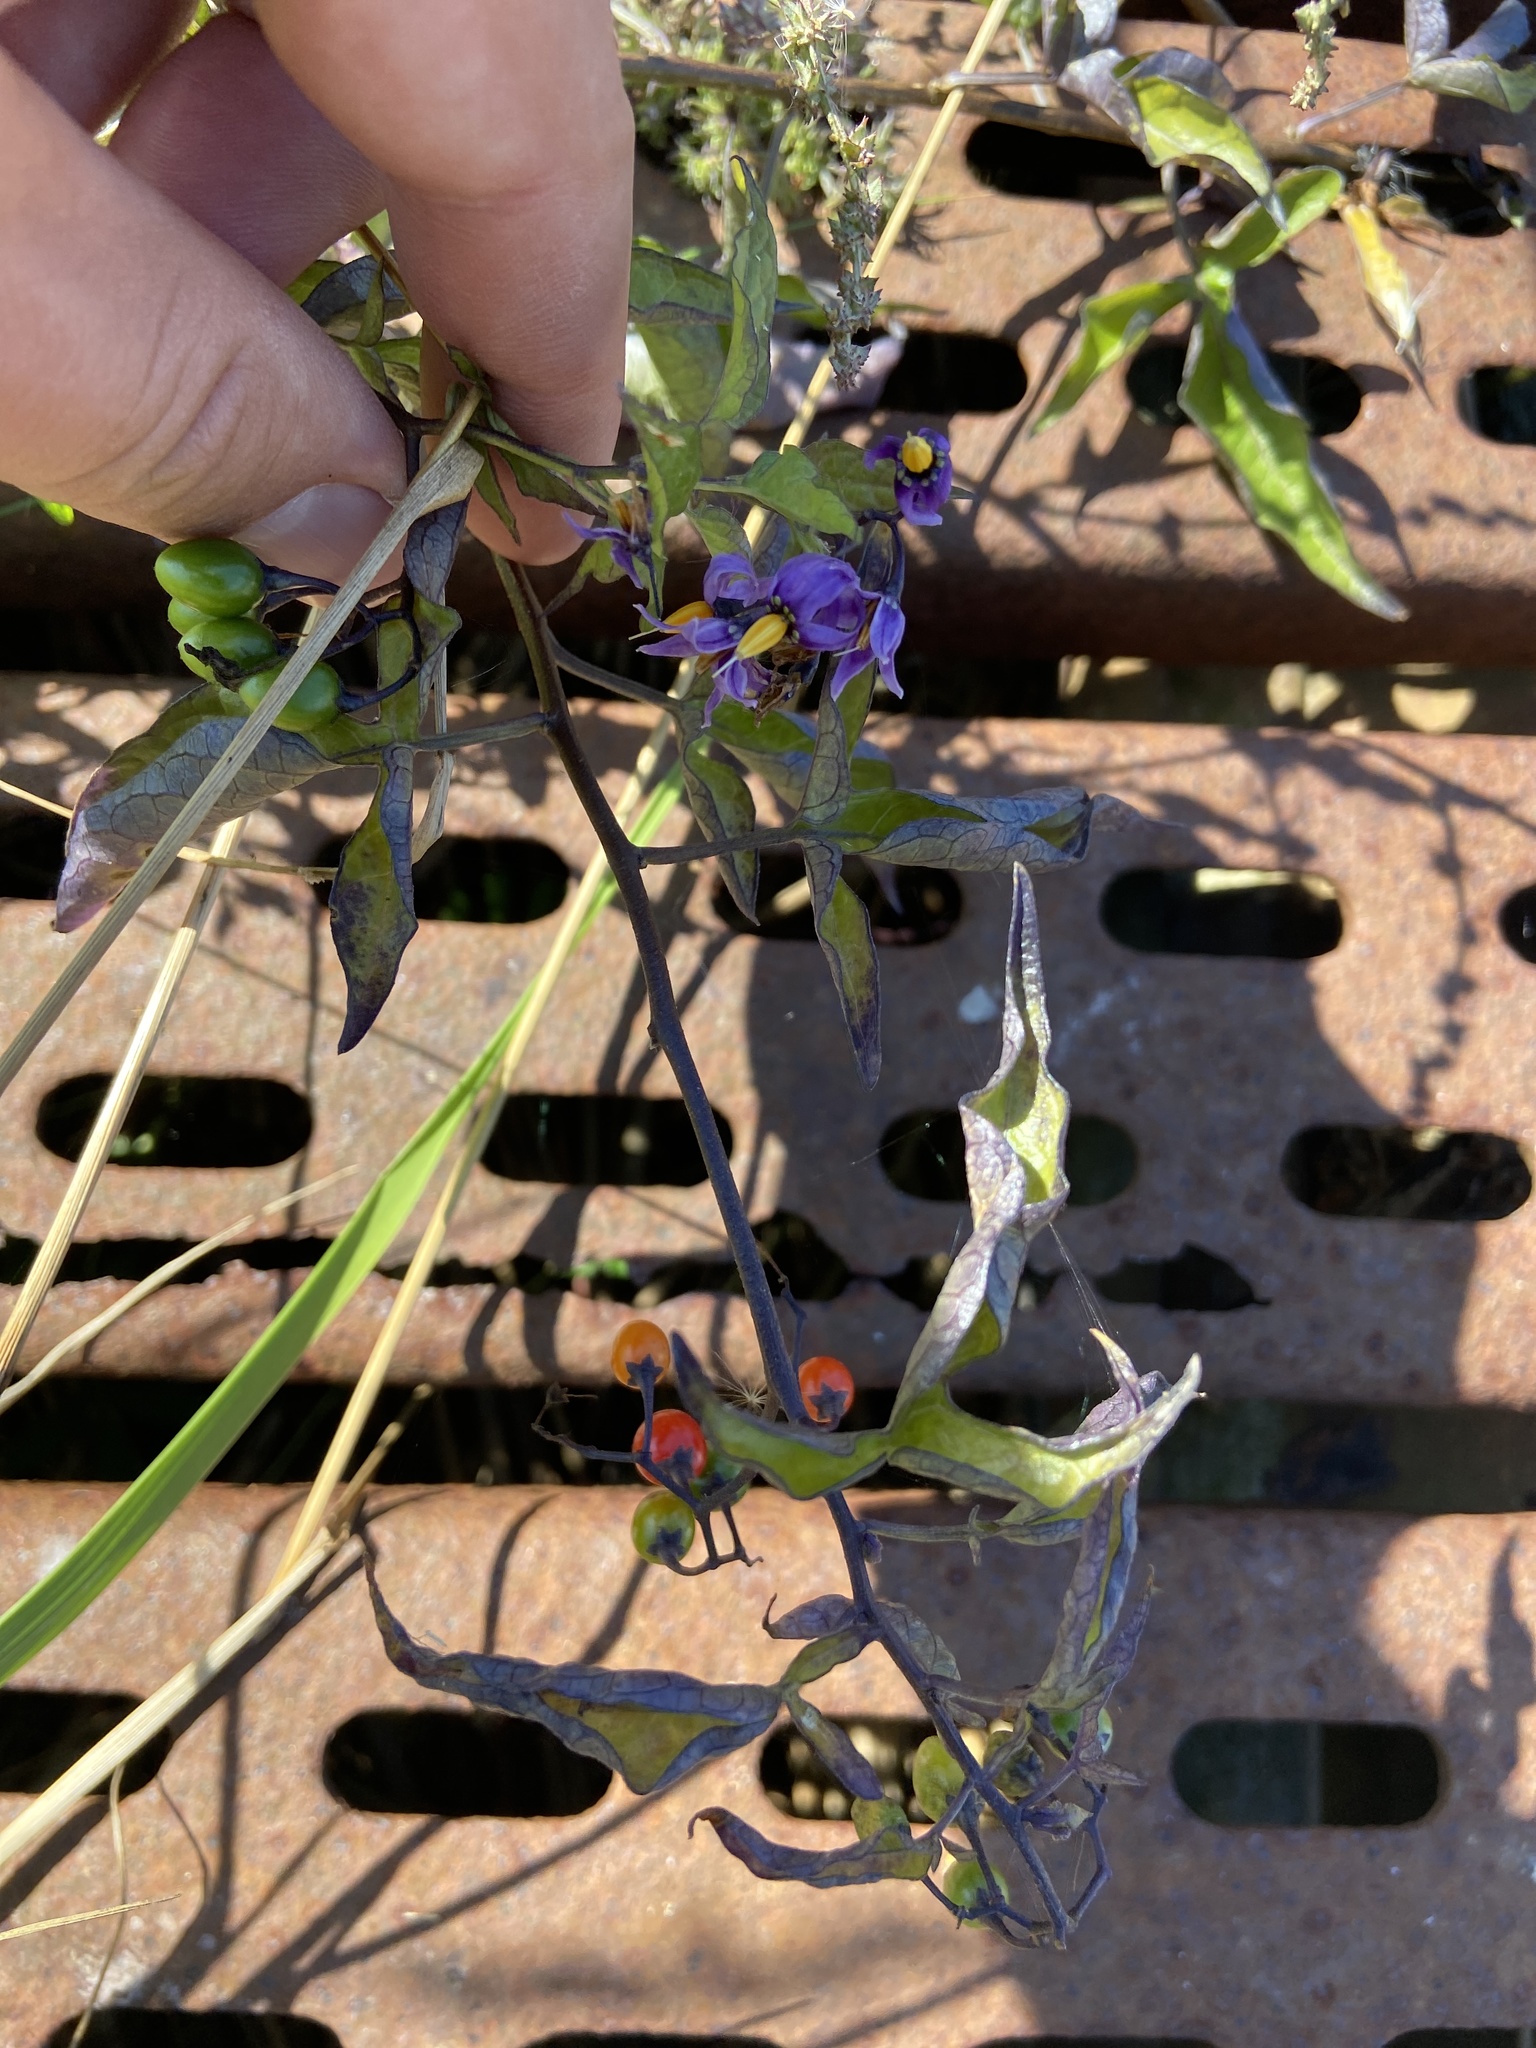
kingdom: Plantae
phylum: Tracheophyta
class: Magnoliopsida
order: Solanales
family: Solanaceae
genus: Solanum
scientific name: Solanum dulcamara
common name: Climbing nightshade
